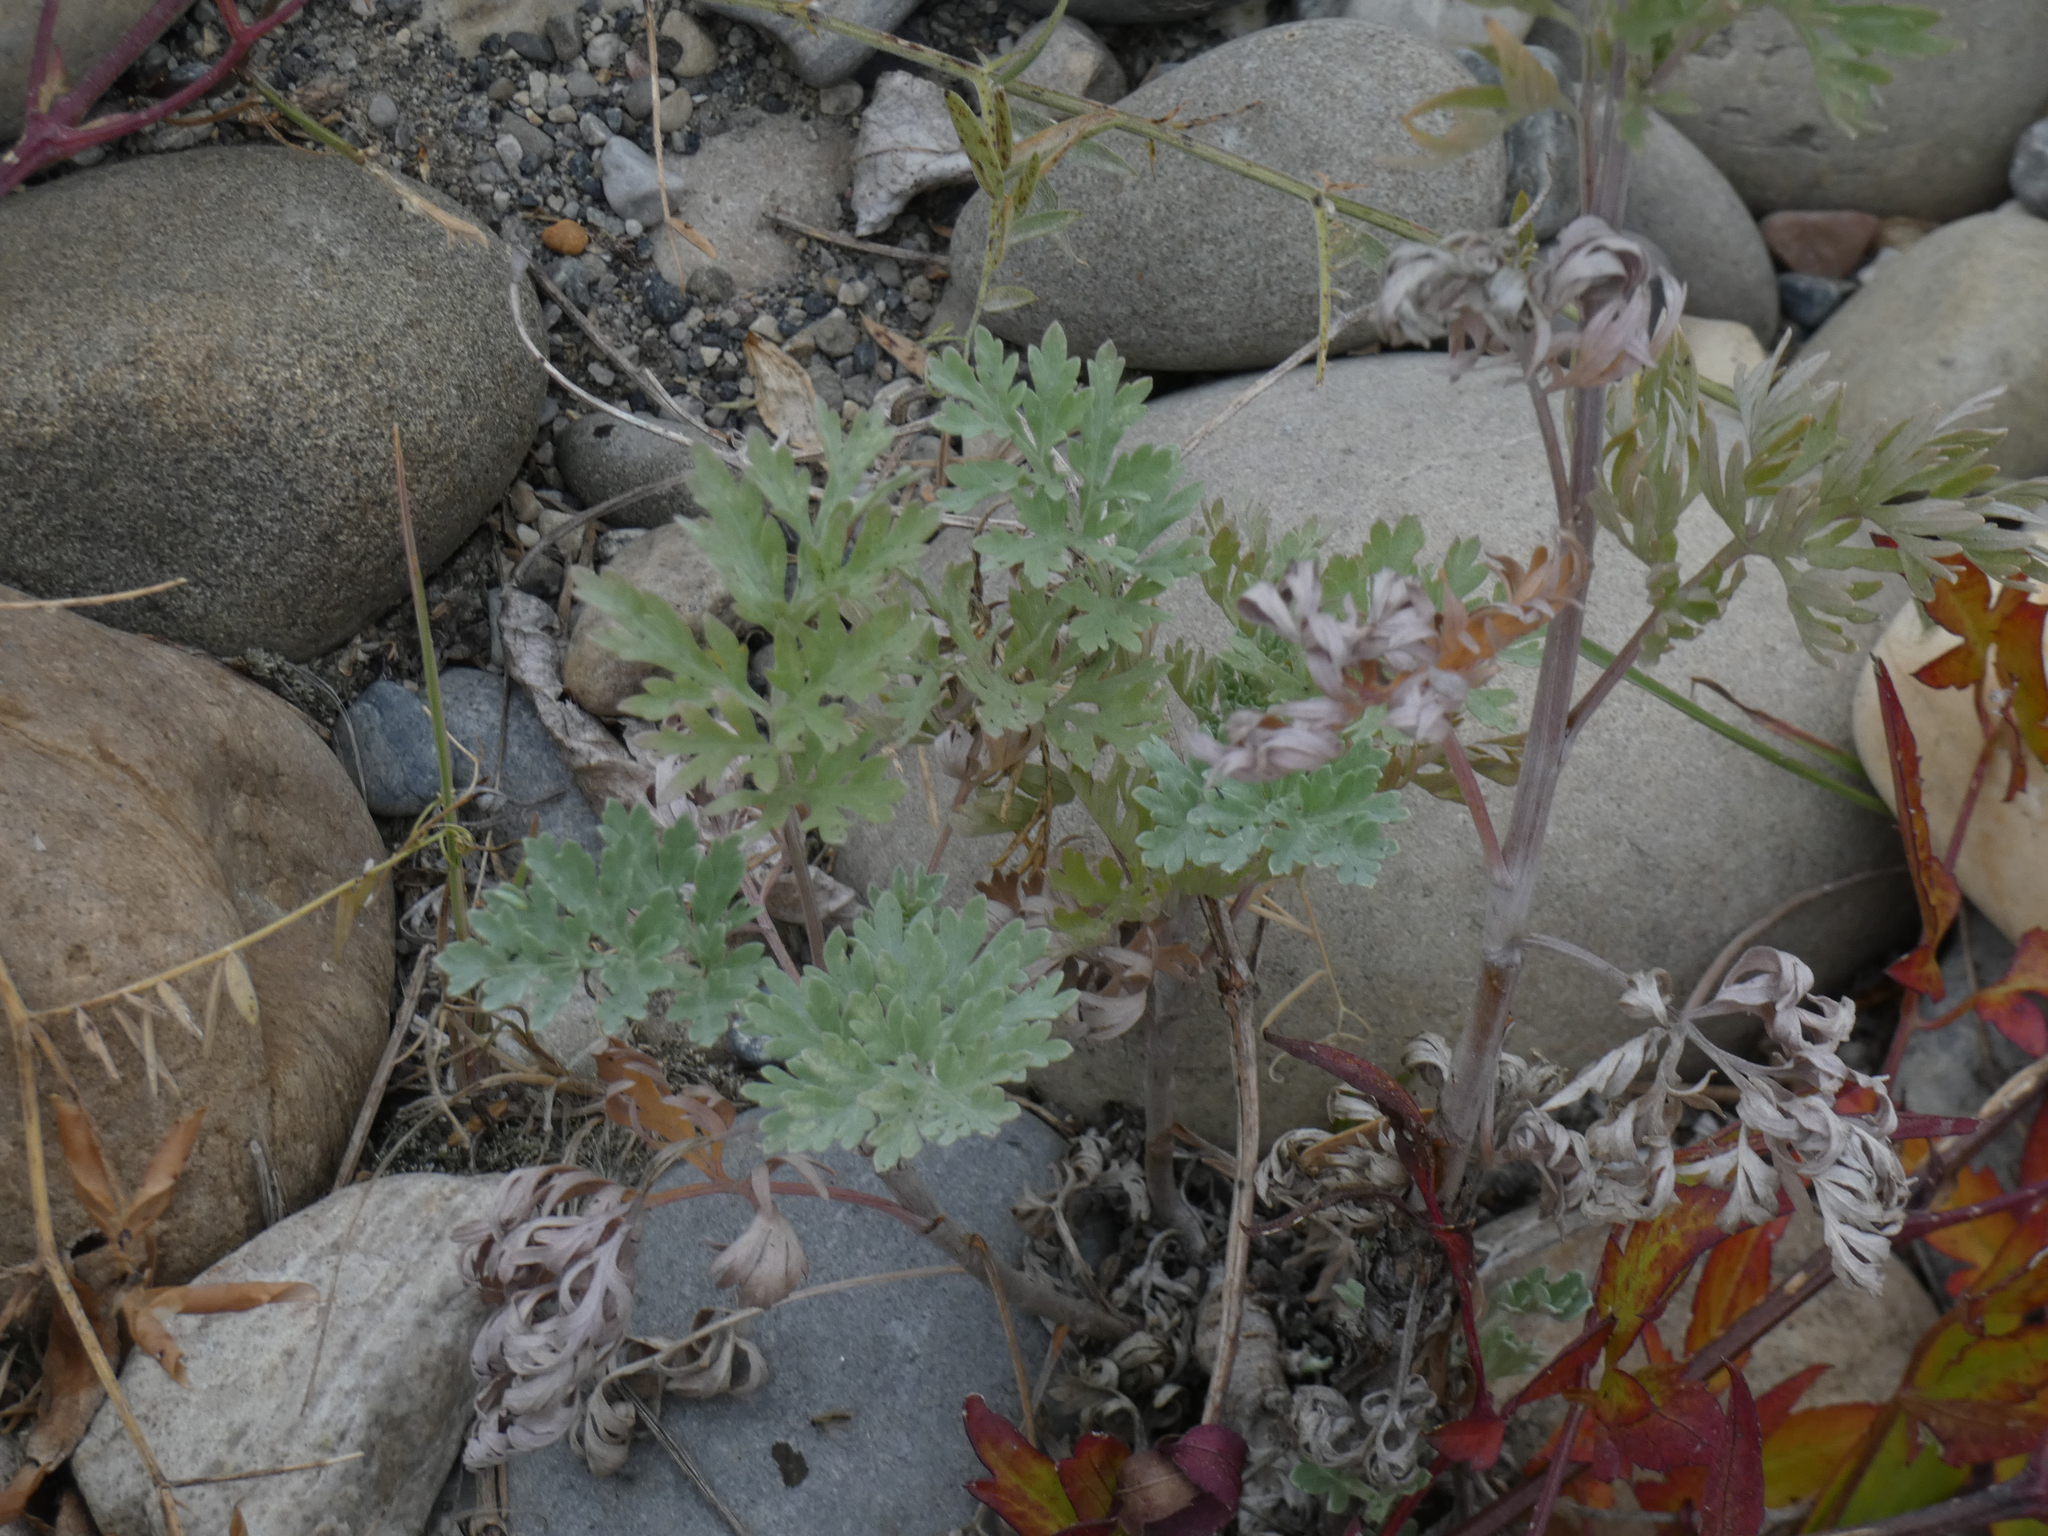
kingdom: Plantae
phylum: Tracheophyta
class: Magnoliopsida
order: Asterales
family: Asteraceae
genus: Artemisia
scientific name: Artemisia absinthium
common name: Wormwood
